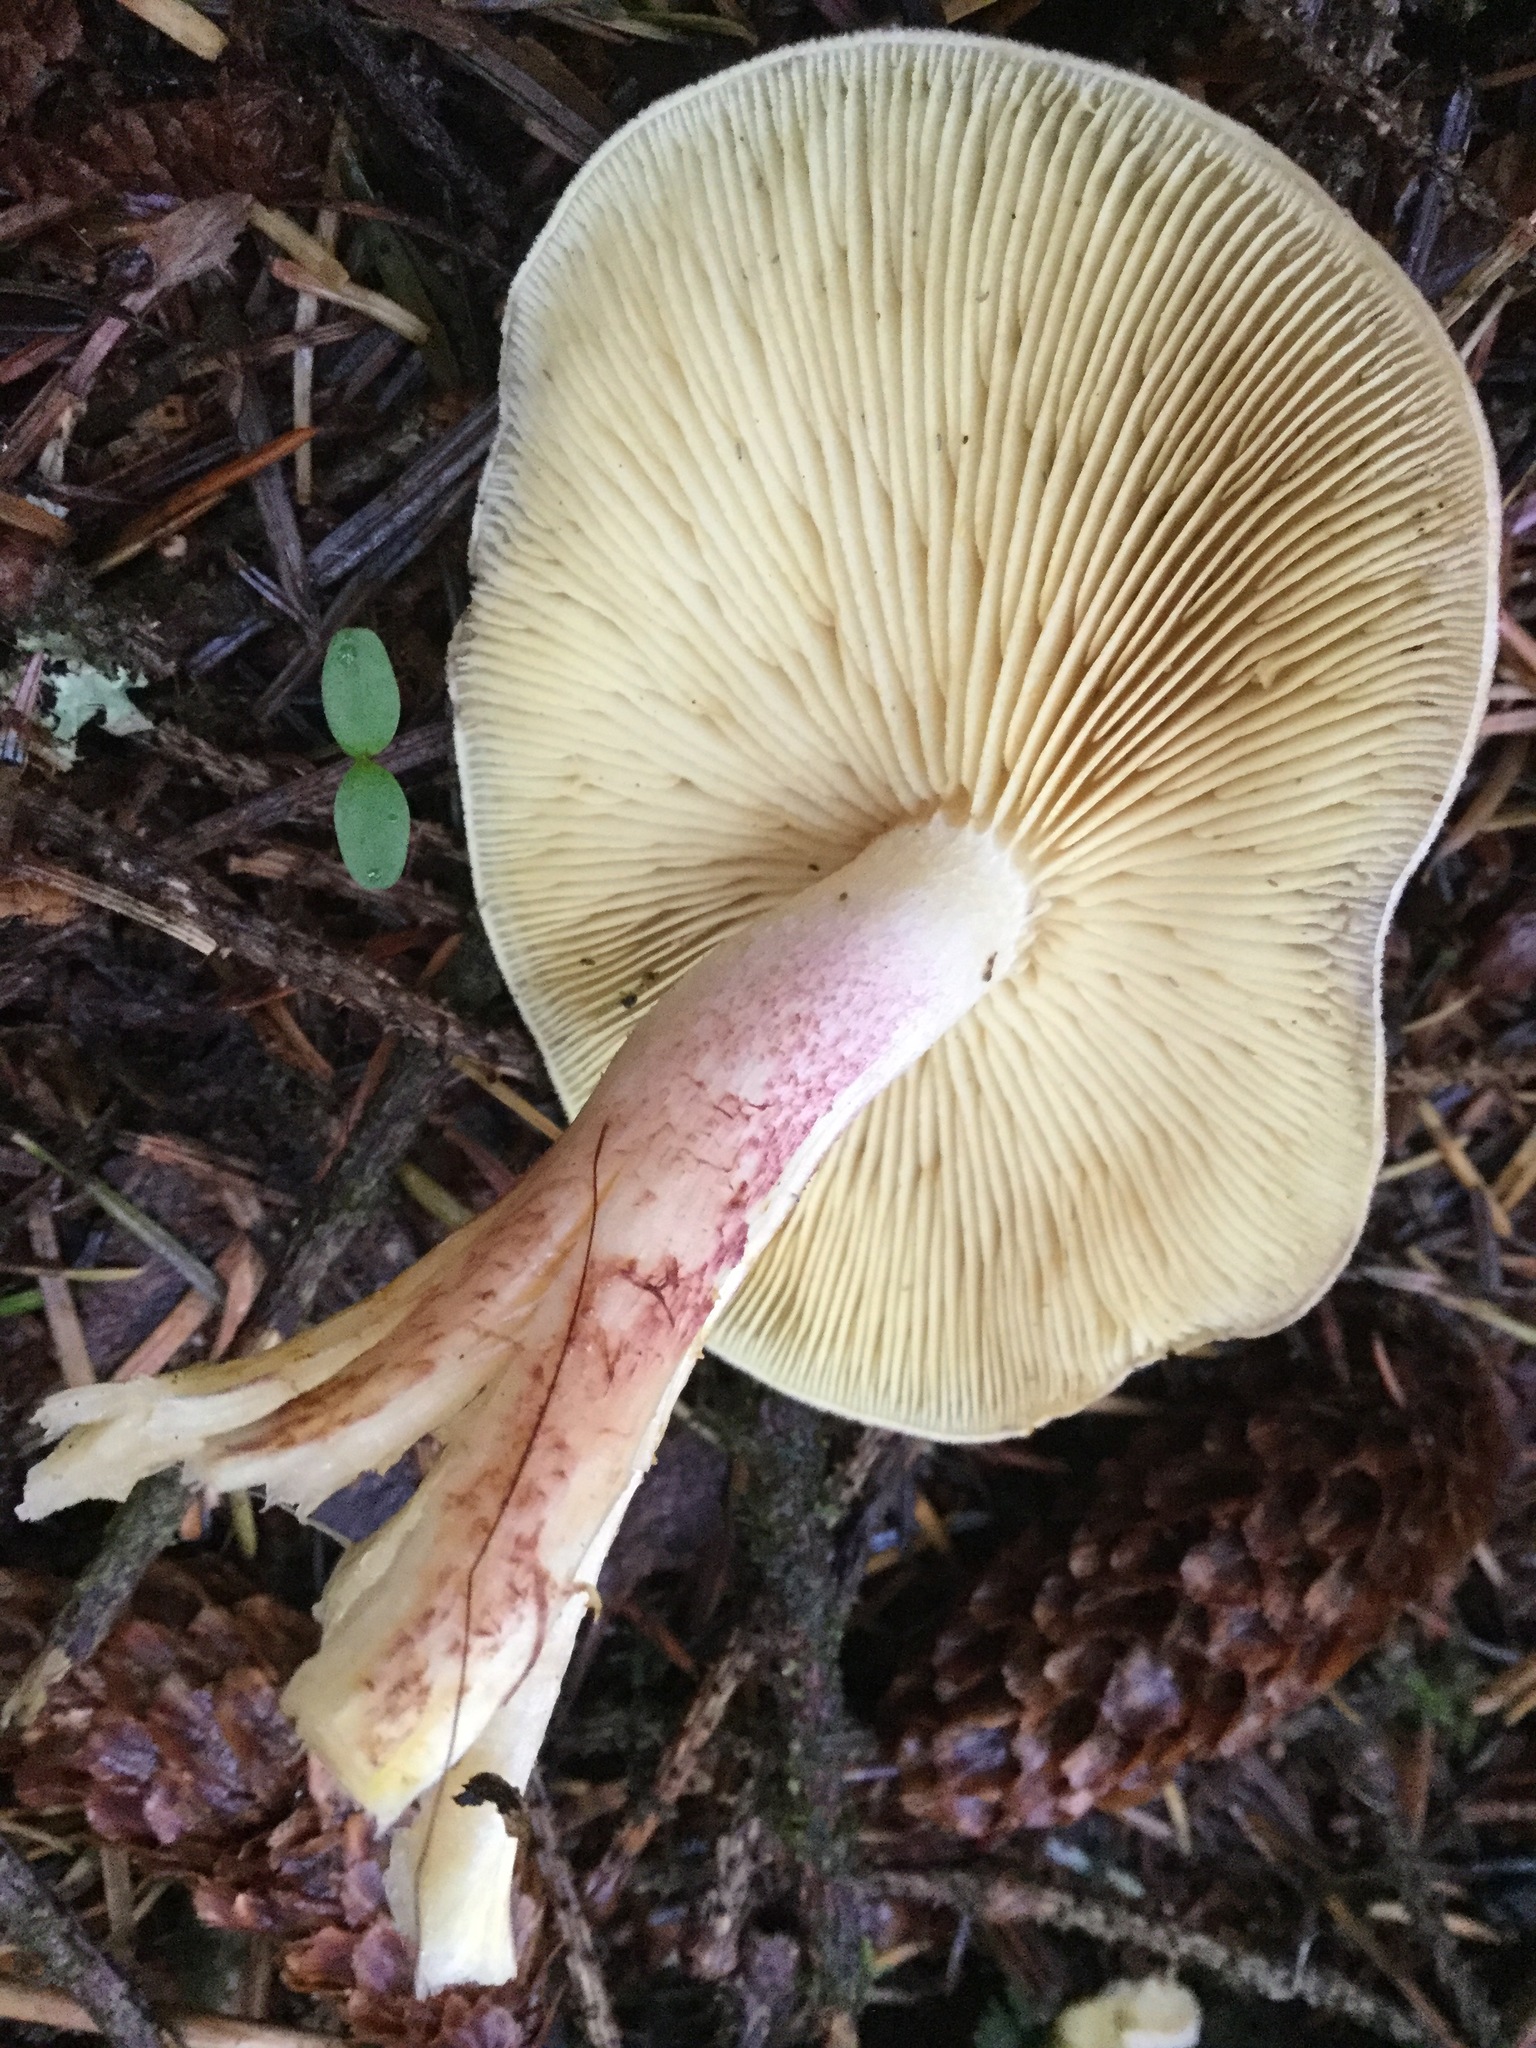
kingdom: Fungi
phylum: Basidiomycota
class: Agaricomycetes
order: Agaricales
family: Tricholomataceae
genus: Tricholomopsis
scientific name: Tricholomopsis rutilans
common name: Plums and custard
